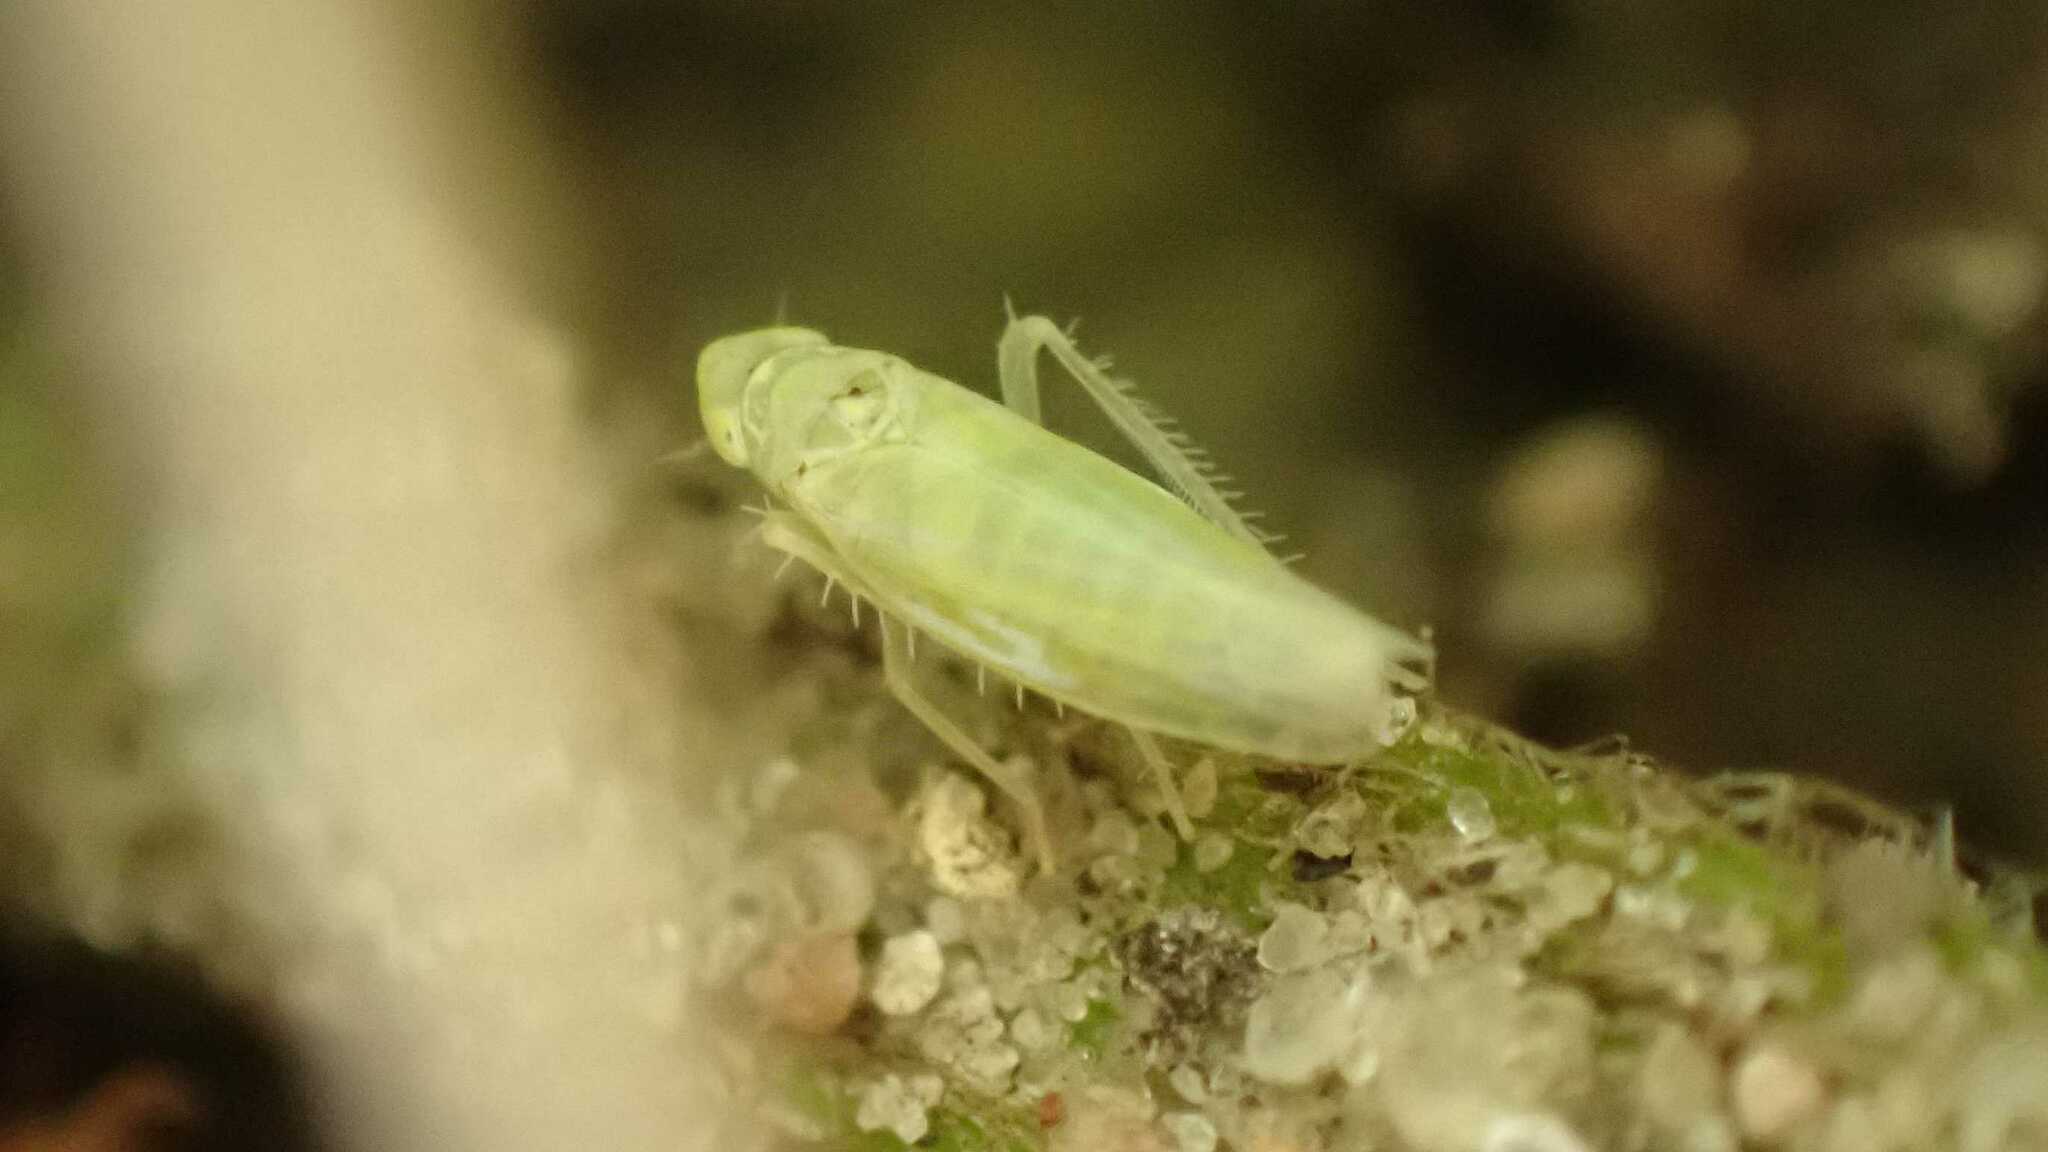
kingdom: Animalia
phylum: Arthropoda
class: Insecta
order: Hemiptera
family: Cicadellidae
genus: Emelyanoviana
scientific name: Emelyanoviana mollicula
